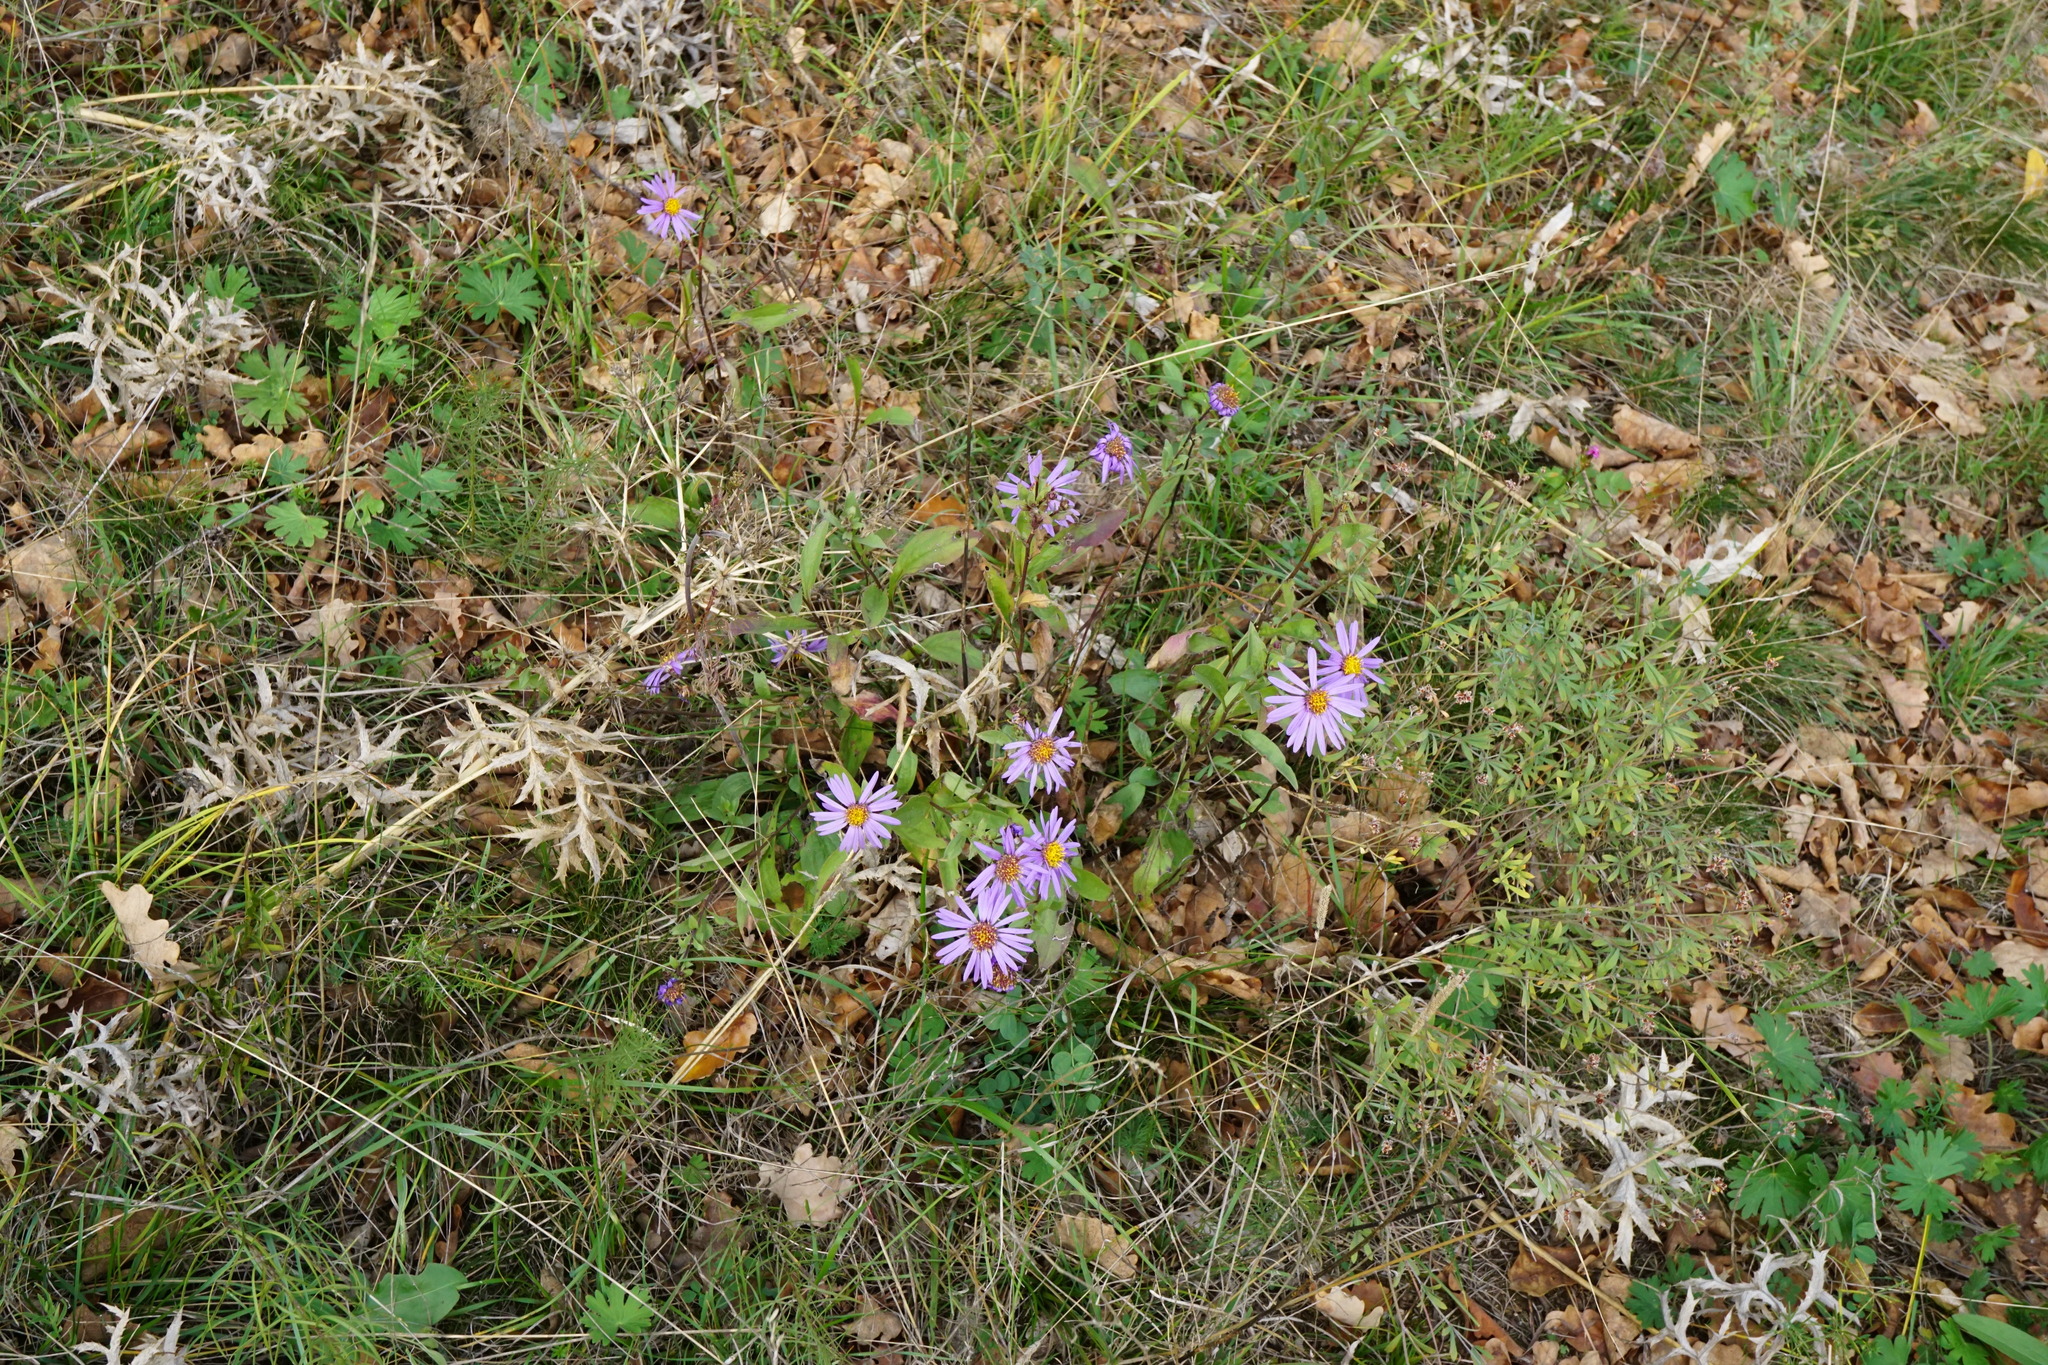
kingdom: Plantae
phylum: Tracheophyta
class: Magnoliopsida
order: Asterales
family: Asteraceae
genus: Aster
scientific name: Aster amellus
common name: European michaelmas daisy
